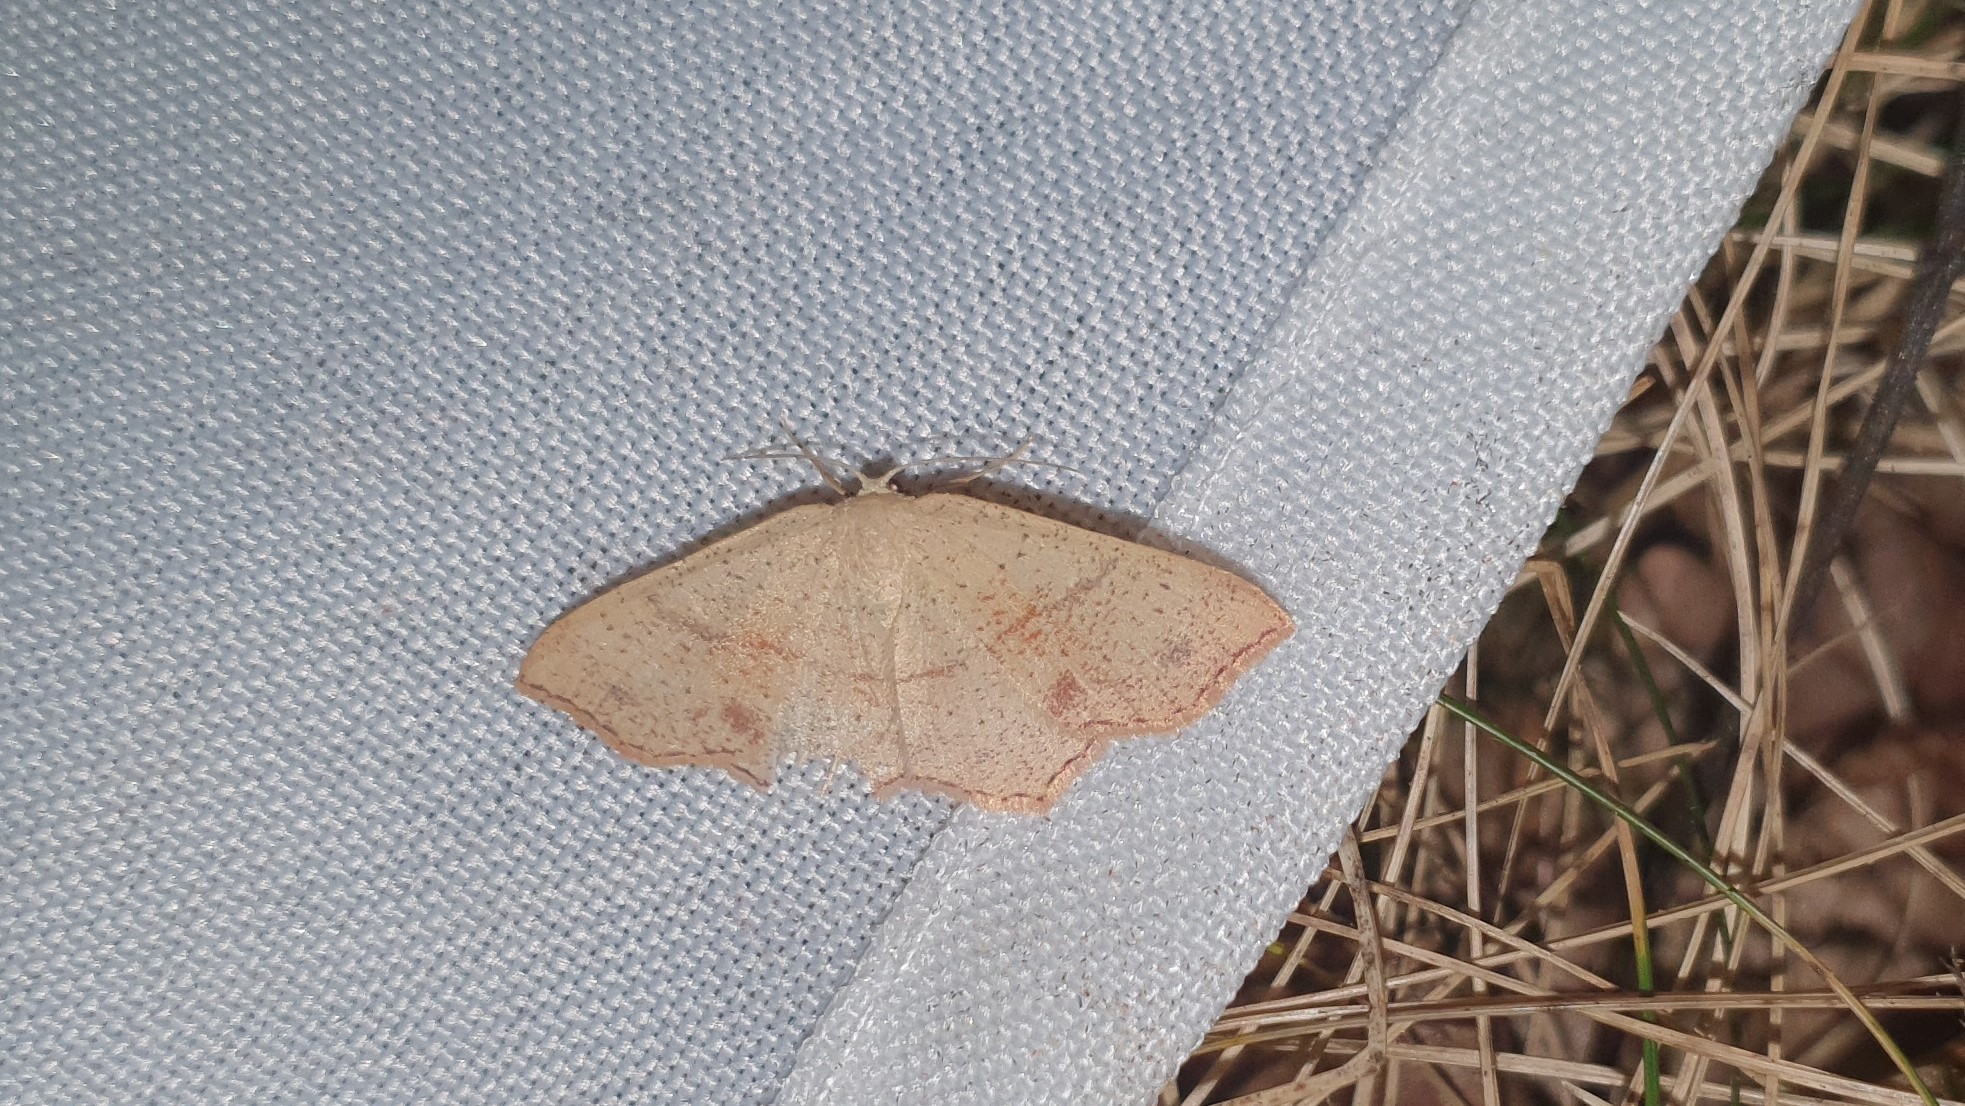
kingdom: Animalia
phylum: Arthropoda
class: Insecta
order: Lepidoptera
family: Geometridae
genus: Cyclophora
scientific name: Cyclophora punctaria
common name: Maiden's blush
